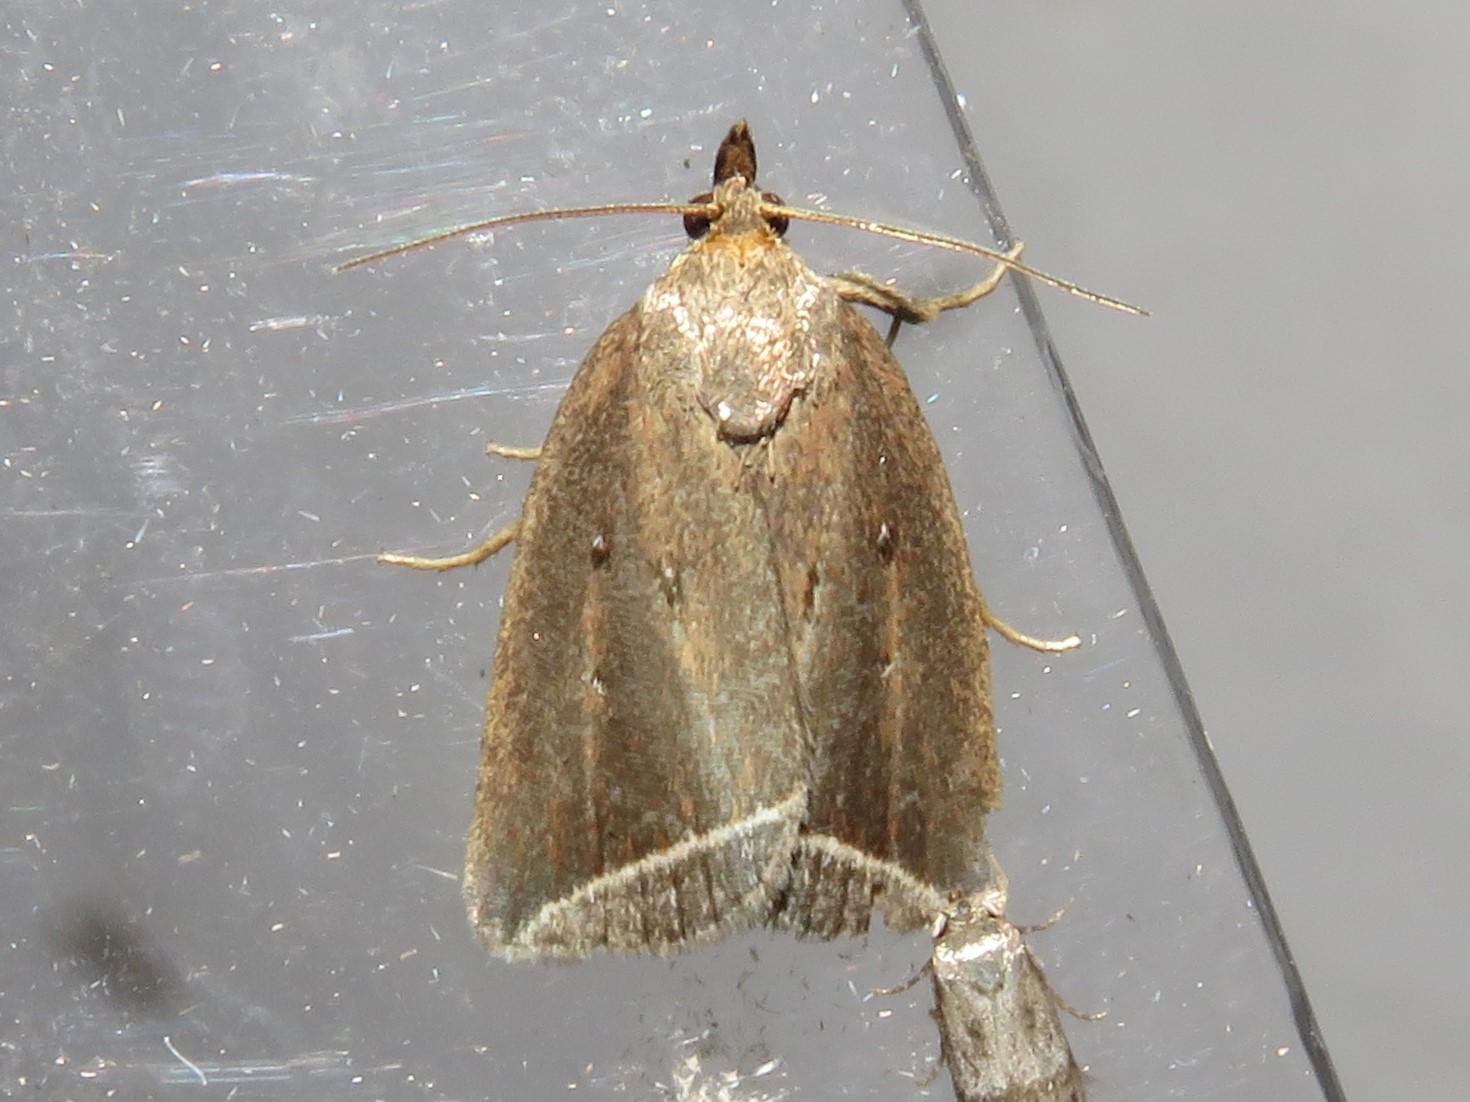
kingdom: Animalia
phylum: Arthropoda
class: Insecta
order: Lepidoptera
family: Erebidae
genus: Capis
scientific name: Capis curvata
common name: Curved halter moth
